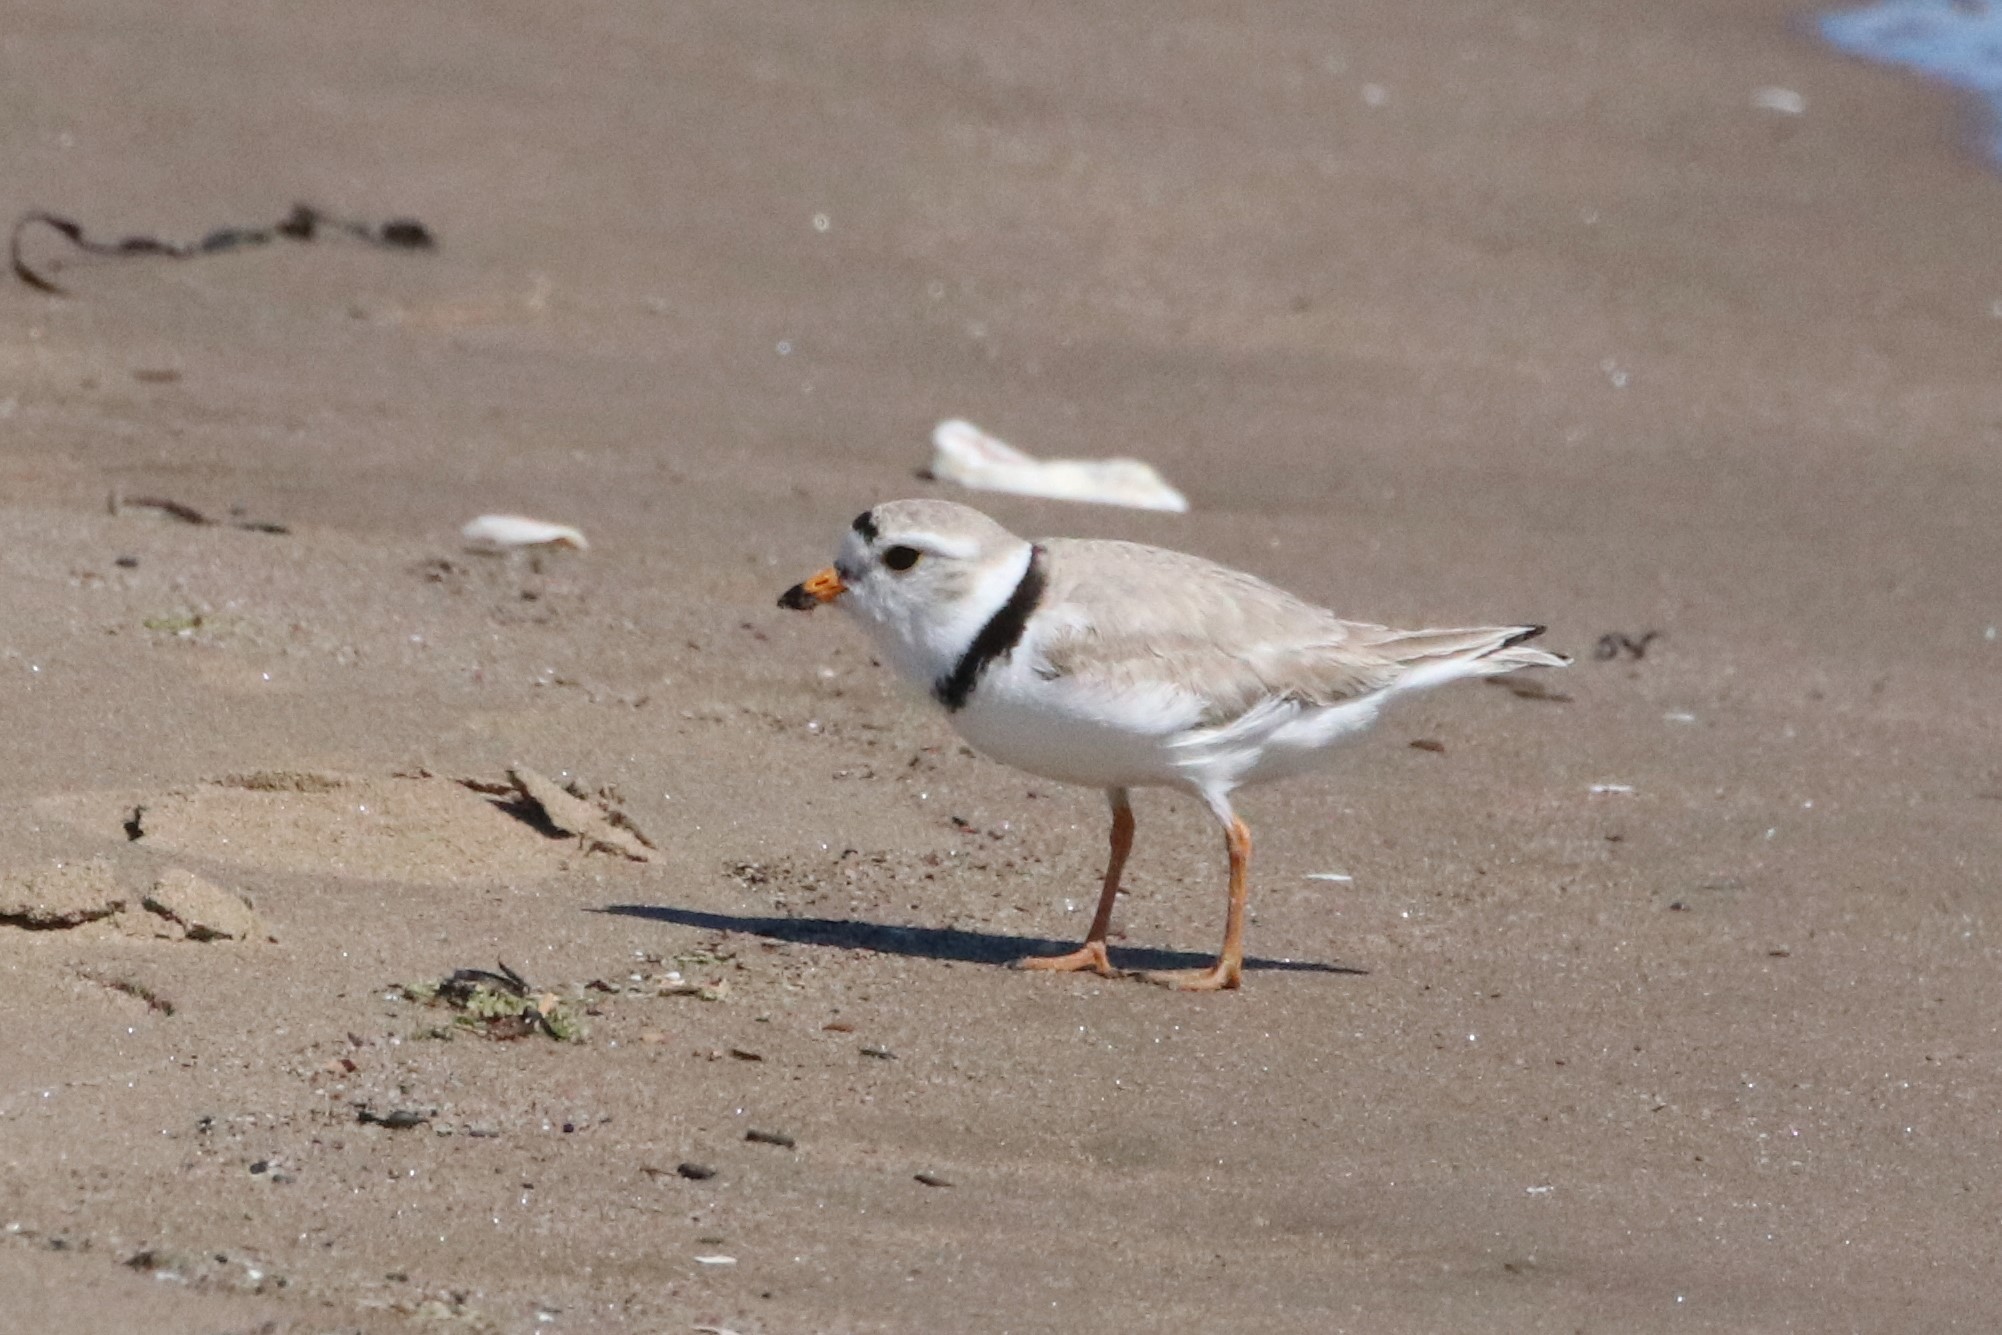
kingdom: Animalia
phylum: Chordata
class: Aves
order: Charadriiformes
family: Charadriidae
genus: Charadrius
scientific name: Charadrius melodus
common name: Piping plover
